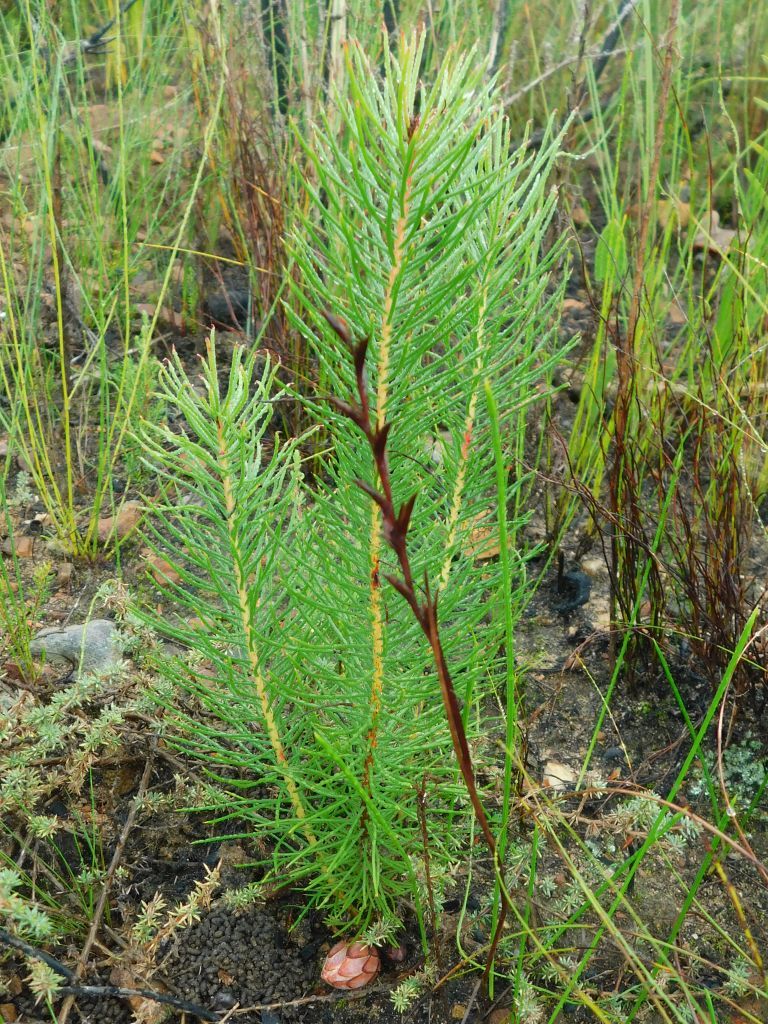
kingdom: Plantae
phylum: Tracheophyta
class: Magnoliopsida
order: Proteales
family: Proteaceae
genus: Protea
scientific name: Protea subulifolia
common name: Awl-leaf sugarbush
